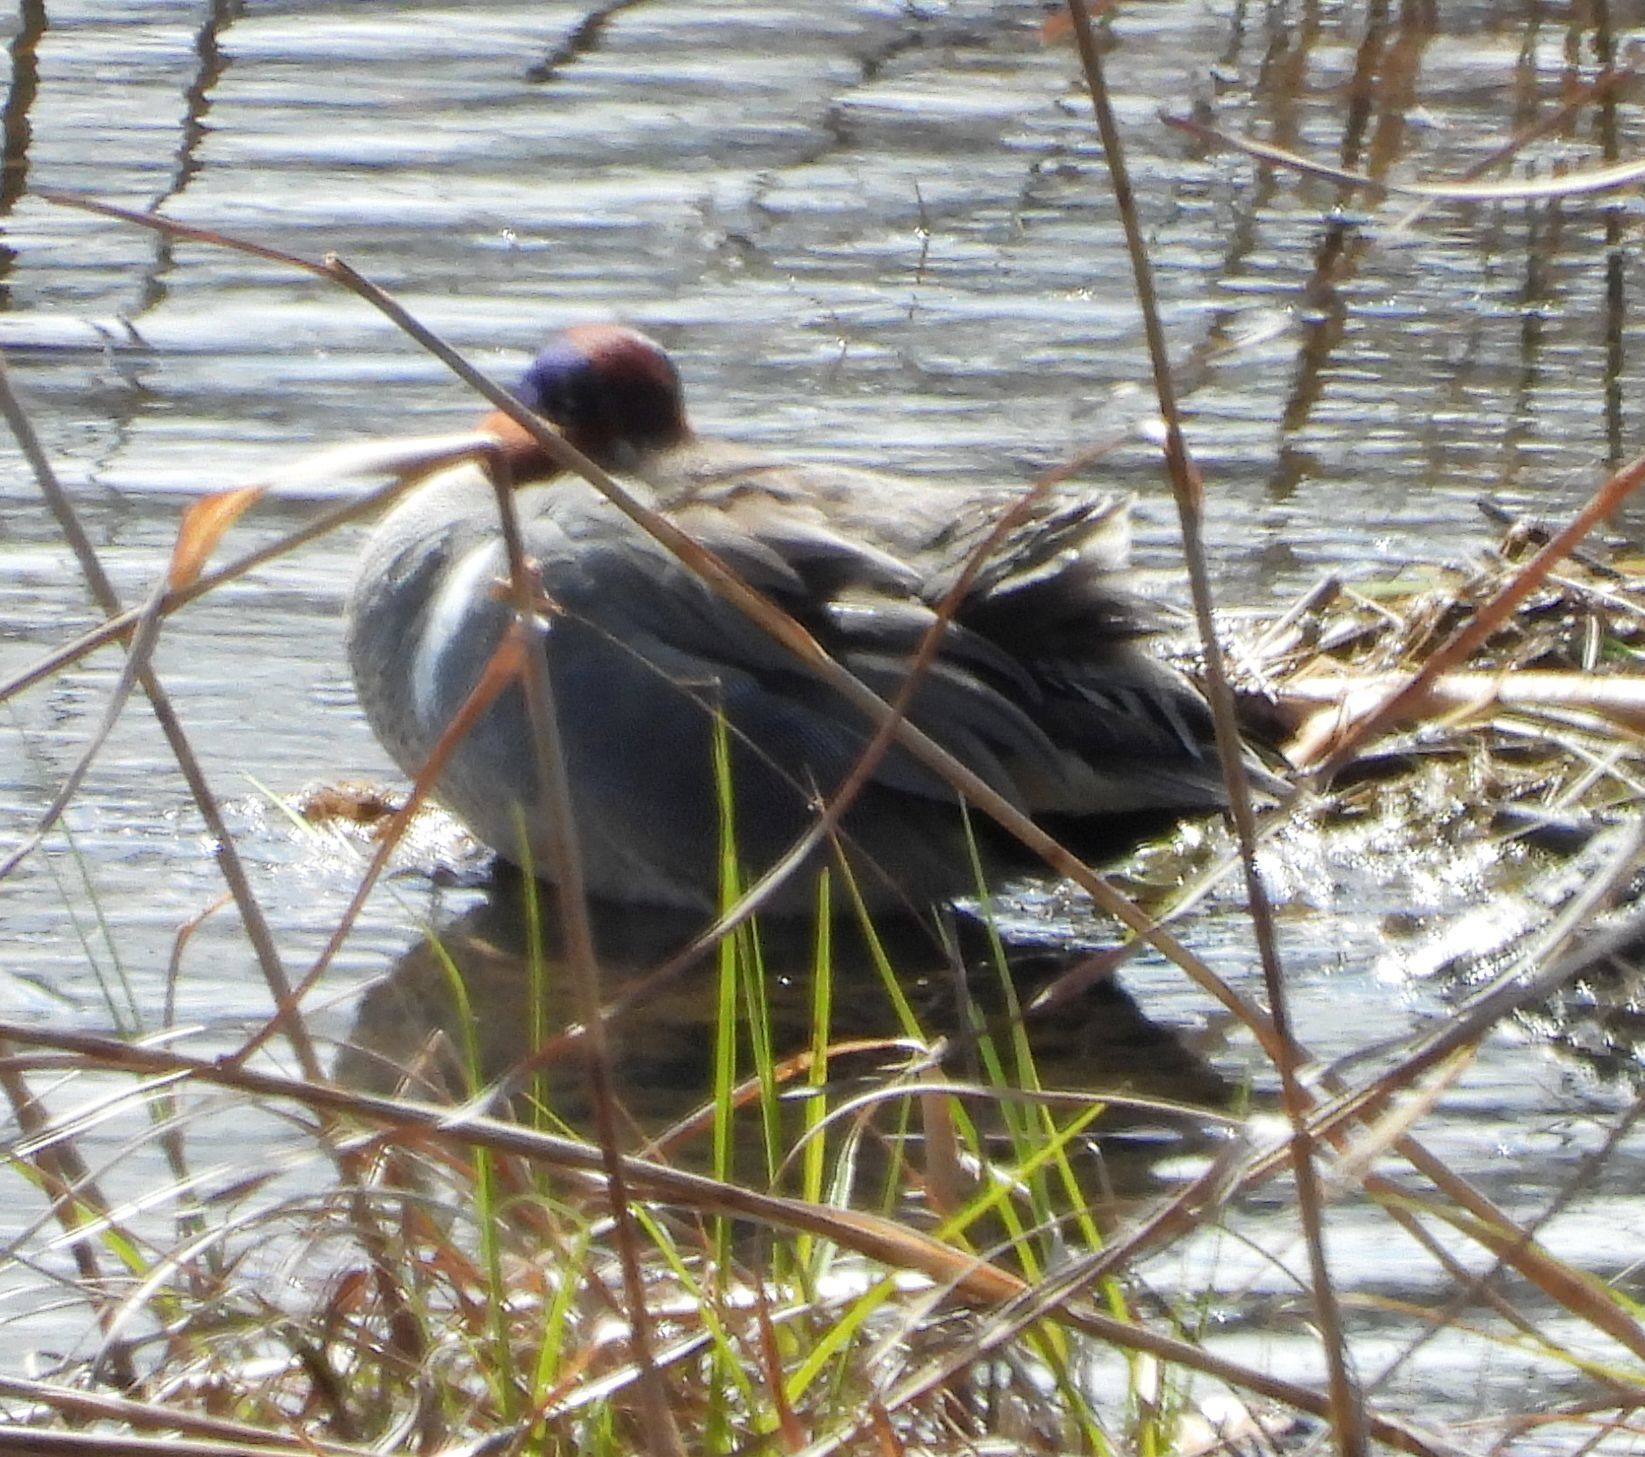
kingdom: Animalia
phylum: Chordata
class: Aves
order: Anseriformes
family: Anatidae
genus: Anas
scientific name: Anas crecca
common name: Eurasian teal
